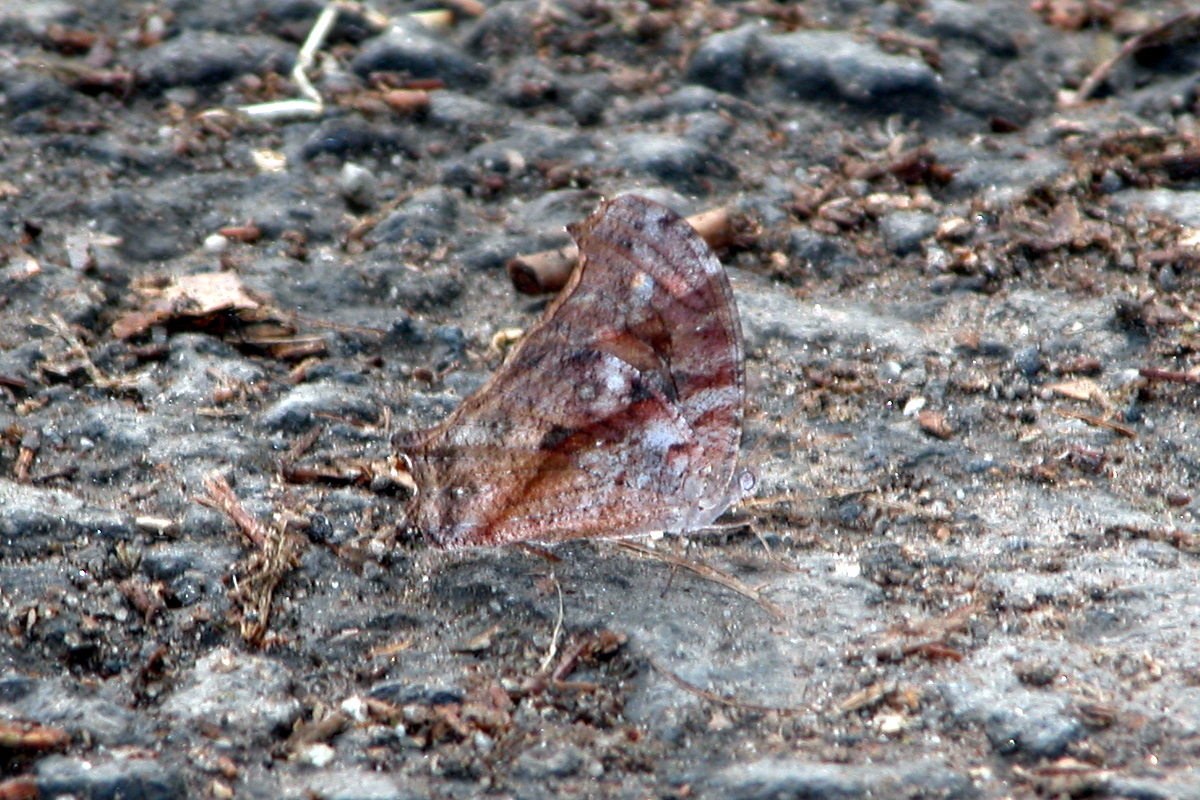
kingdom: Animalia
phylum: Arthropoda
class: Insecta
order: Lepidoptera
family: Nymphalidae
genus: Melanitis
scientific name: Melanitis leda
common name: Twilight brown
